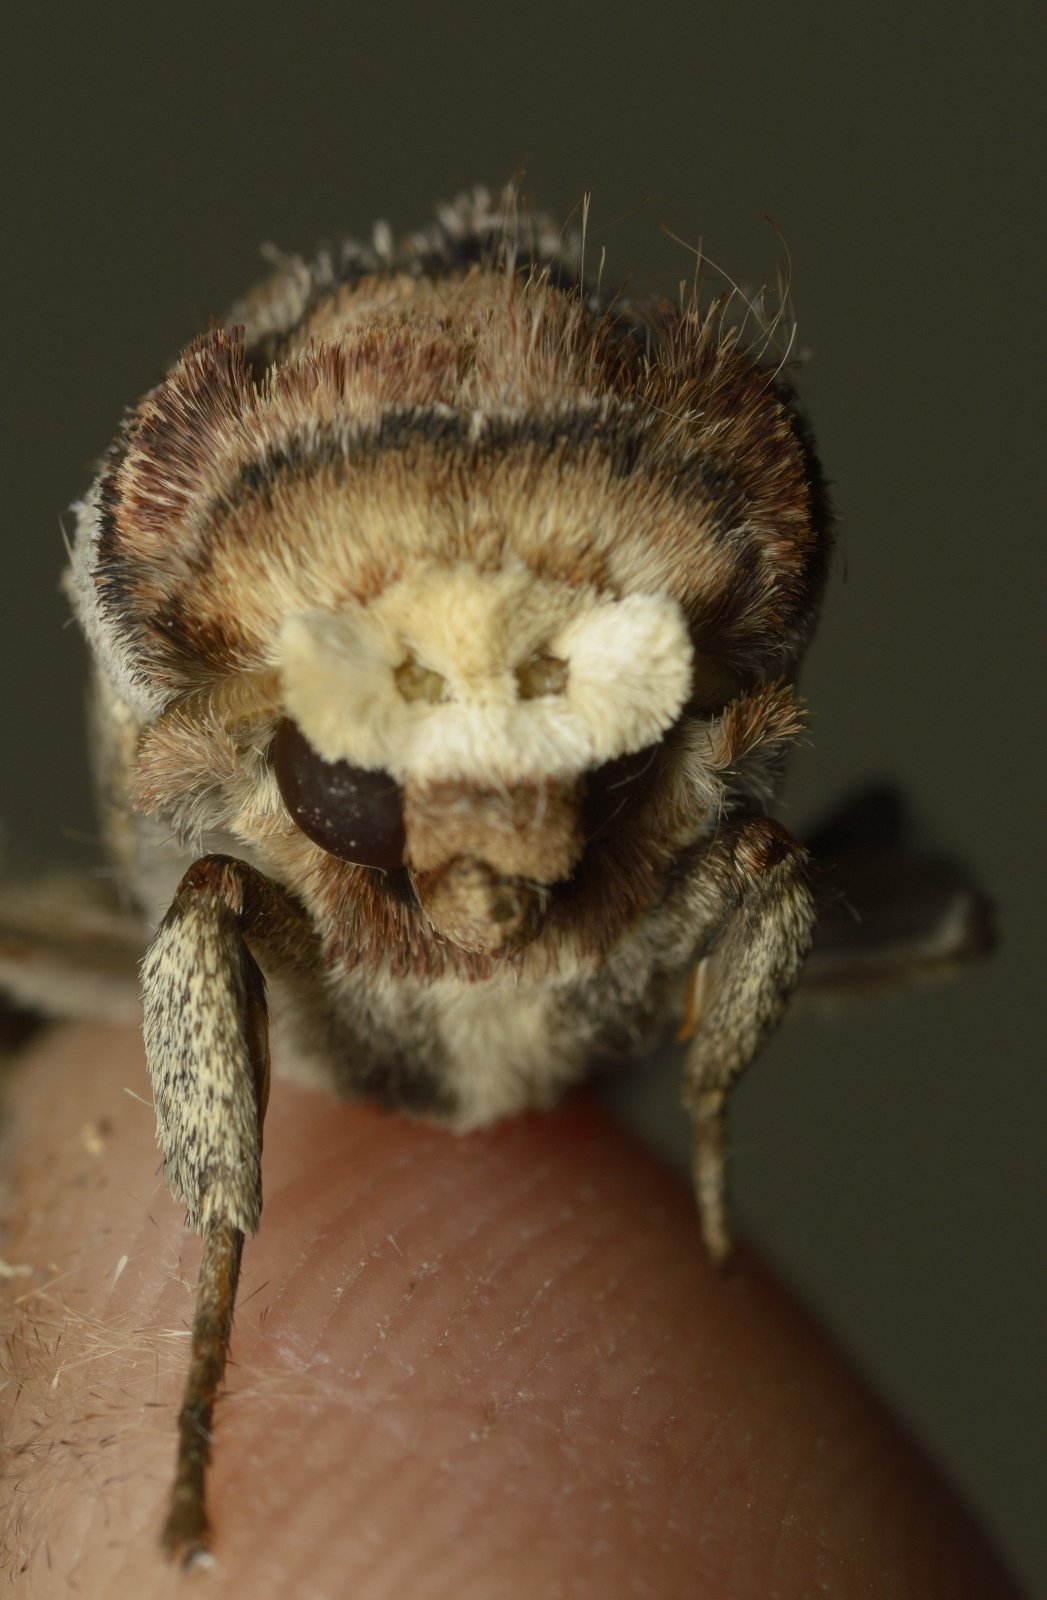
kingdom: Animalia
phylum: Arthropoda
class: Insecta
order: Lepidoptera
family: Notodontidae
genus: Phalera
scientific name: Phalera grotei
